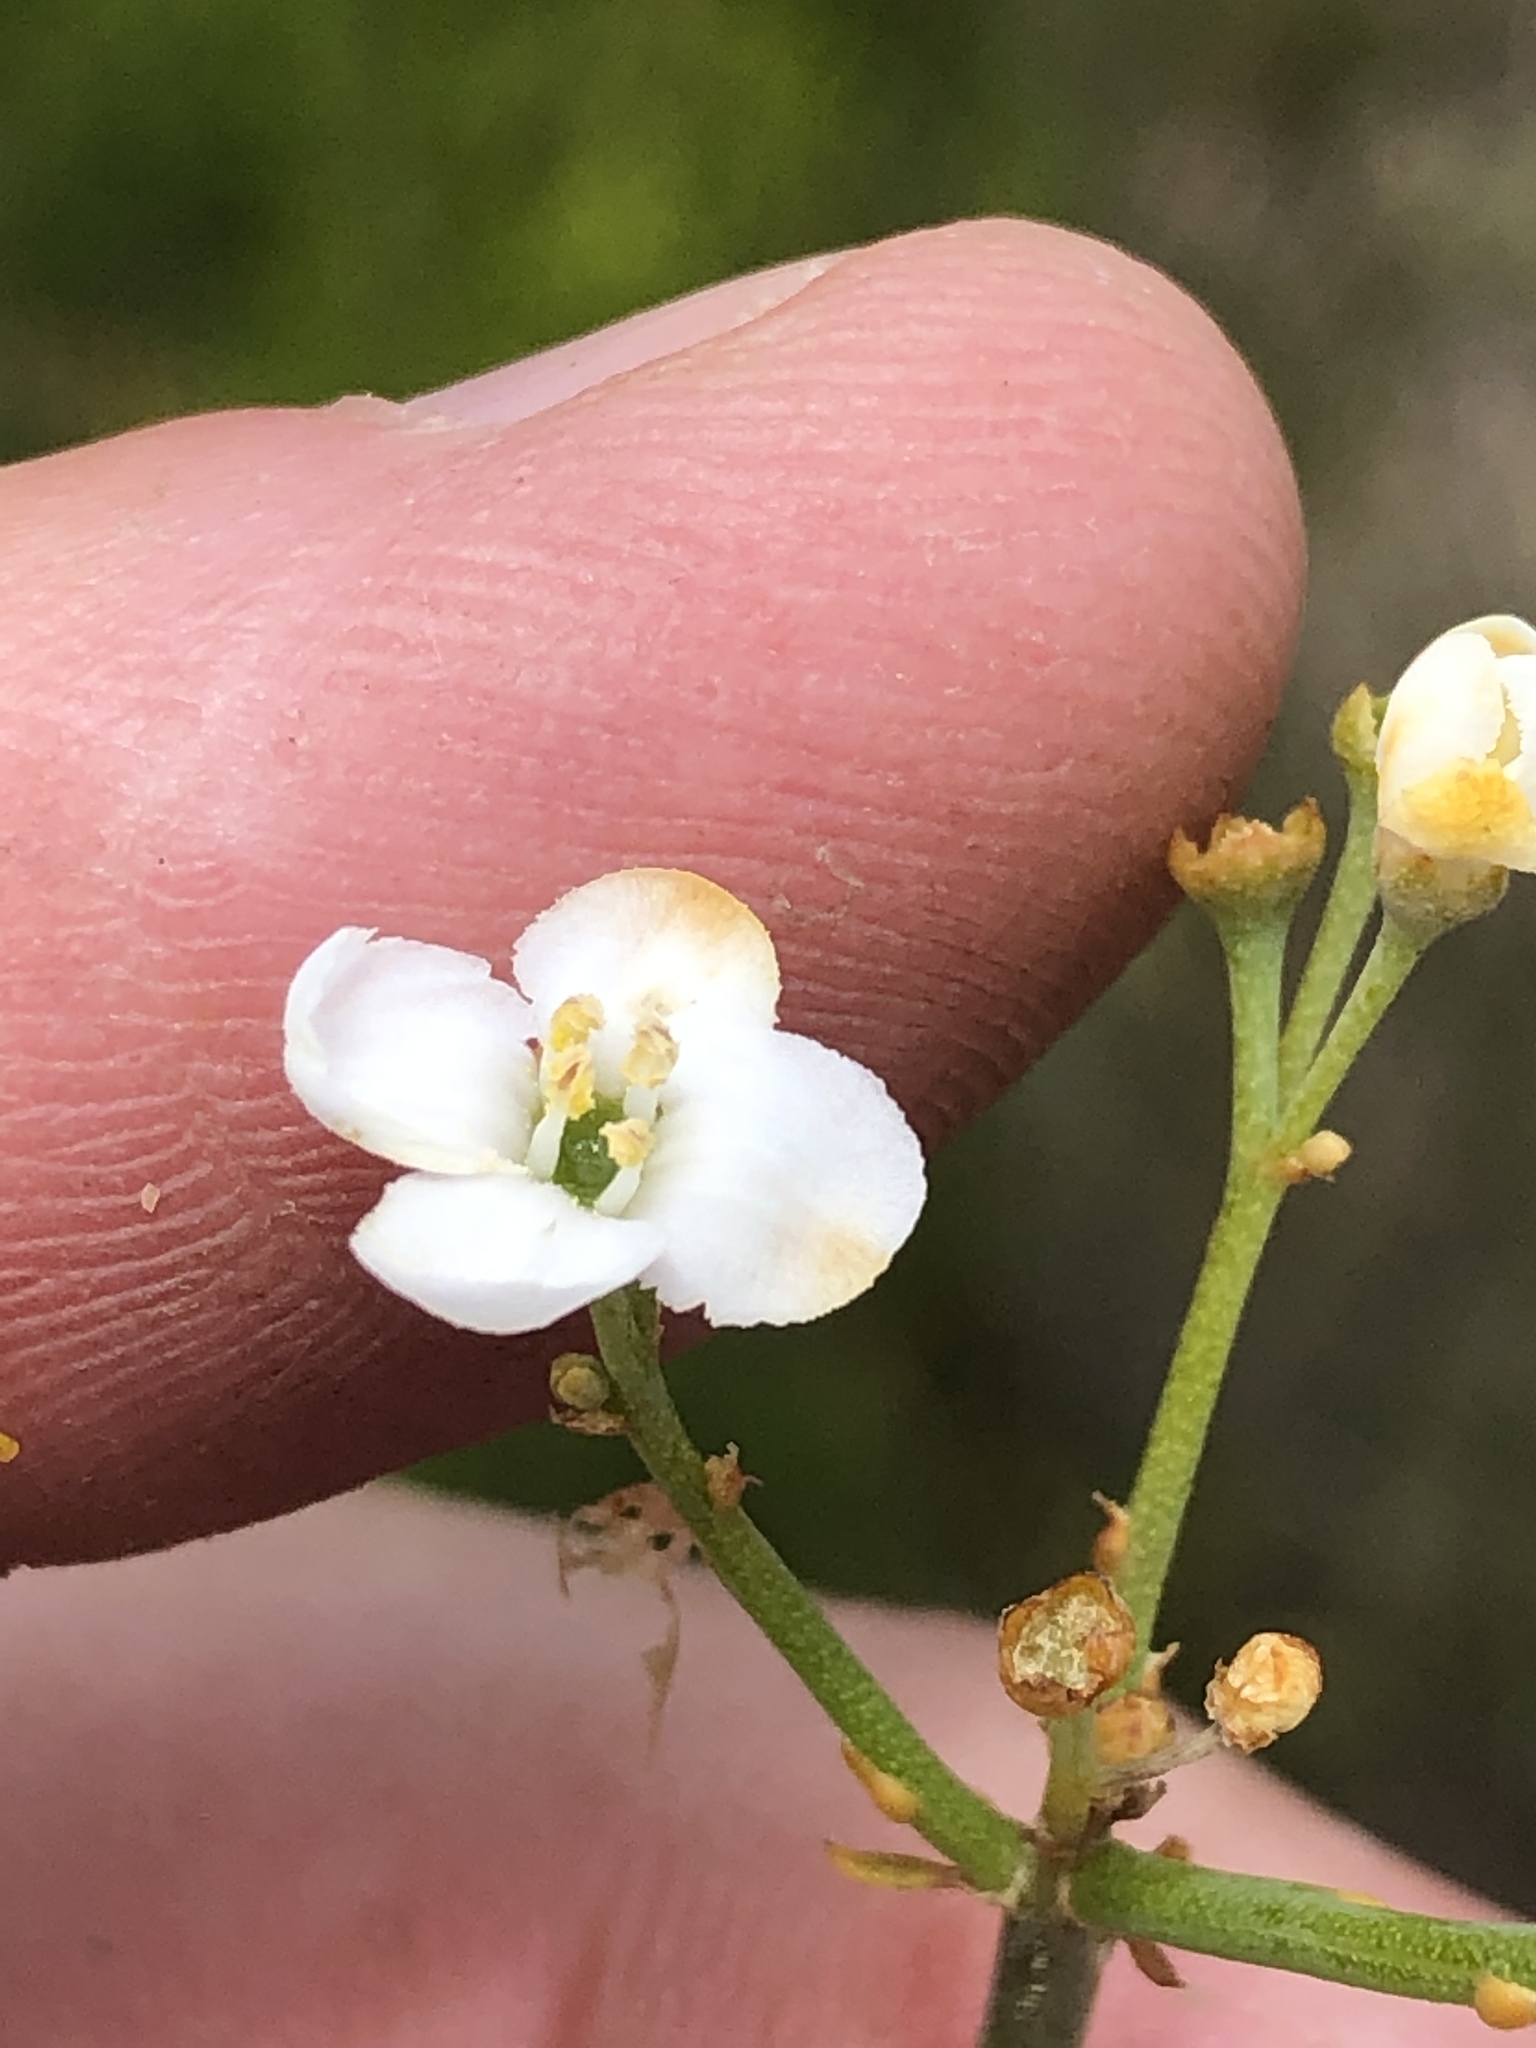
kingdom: Plantae
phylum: Tracheophyta
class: Magnoliopsida
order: Lamiales
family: Scrophulariaceae
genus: Buddleja
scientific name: Buddleja virgata
